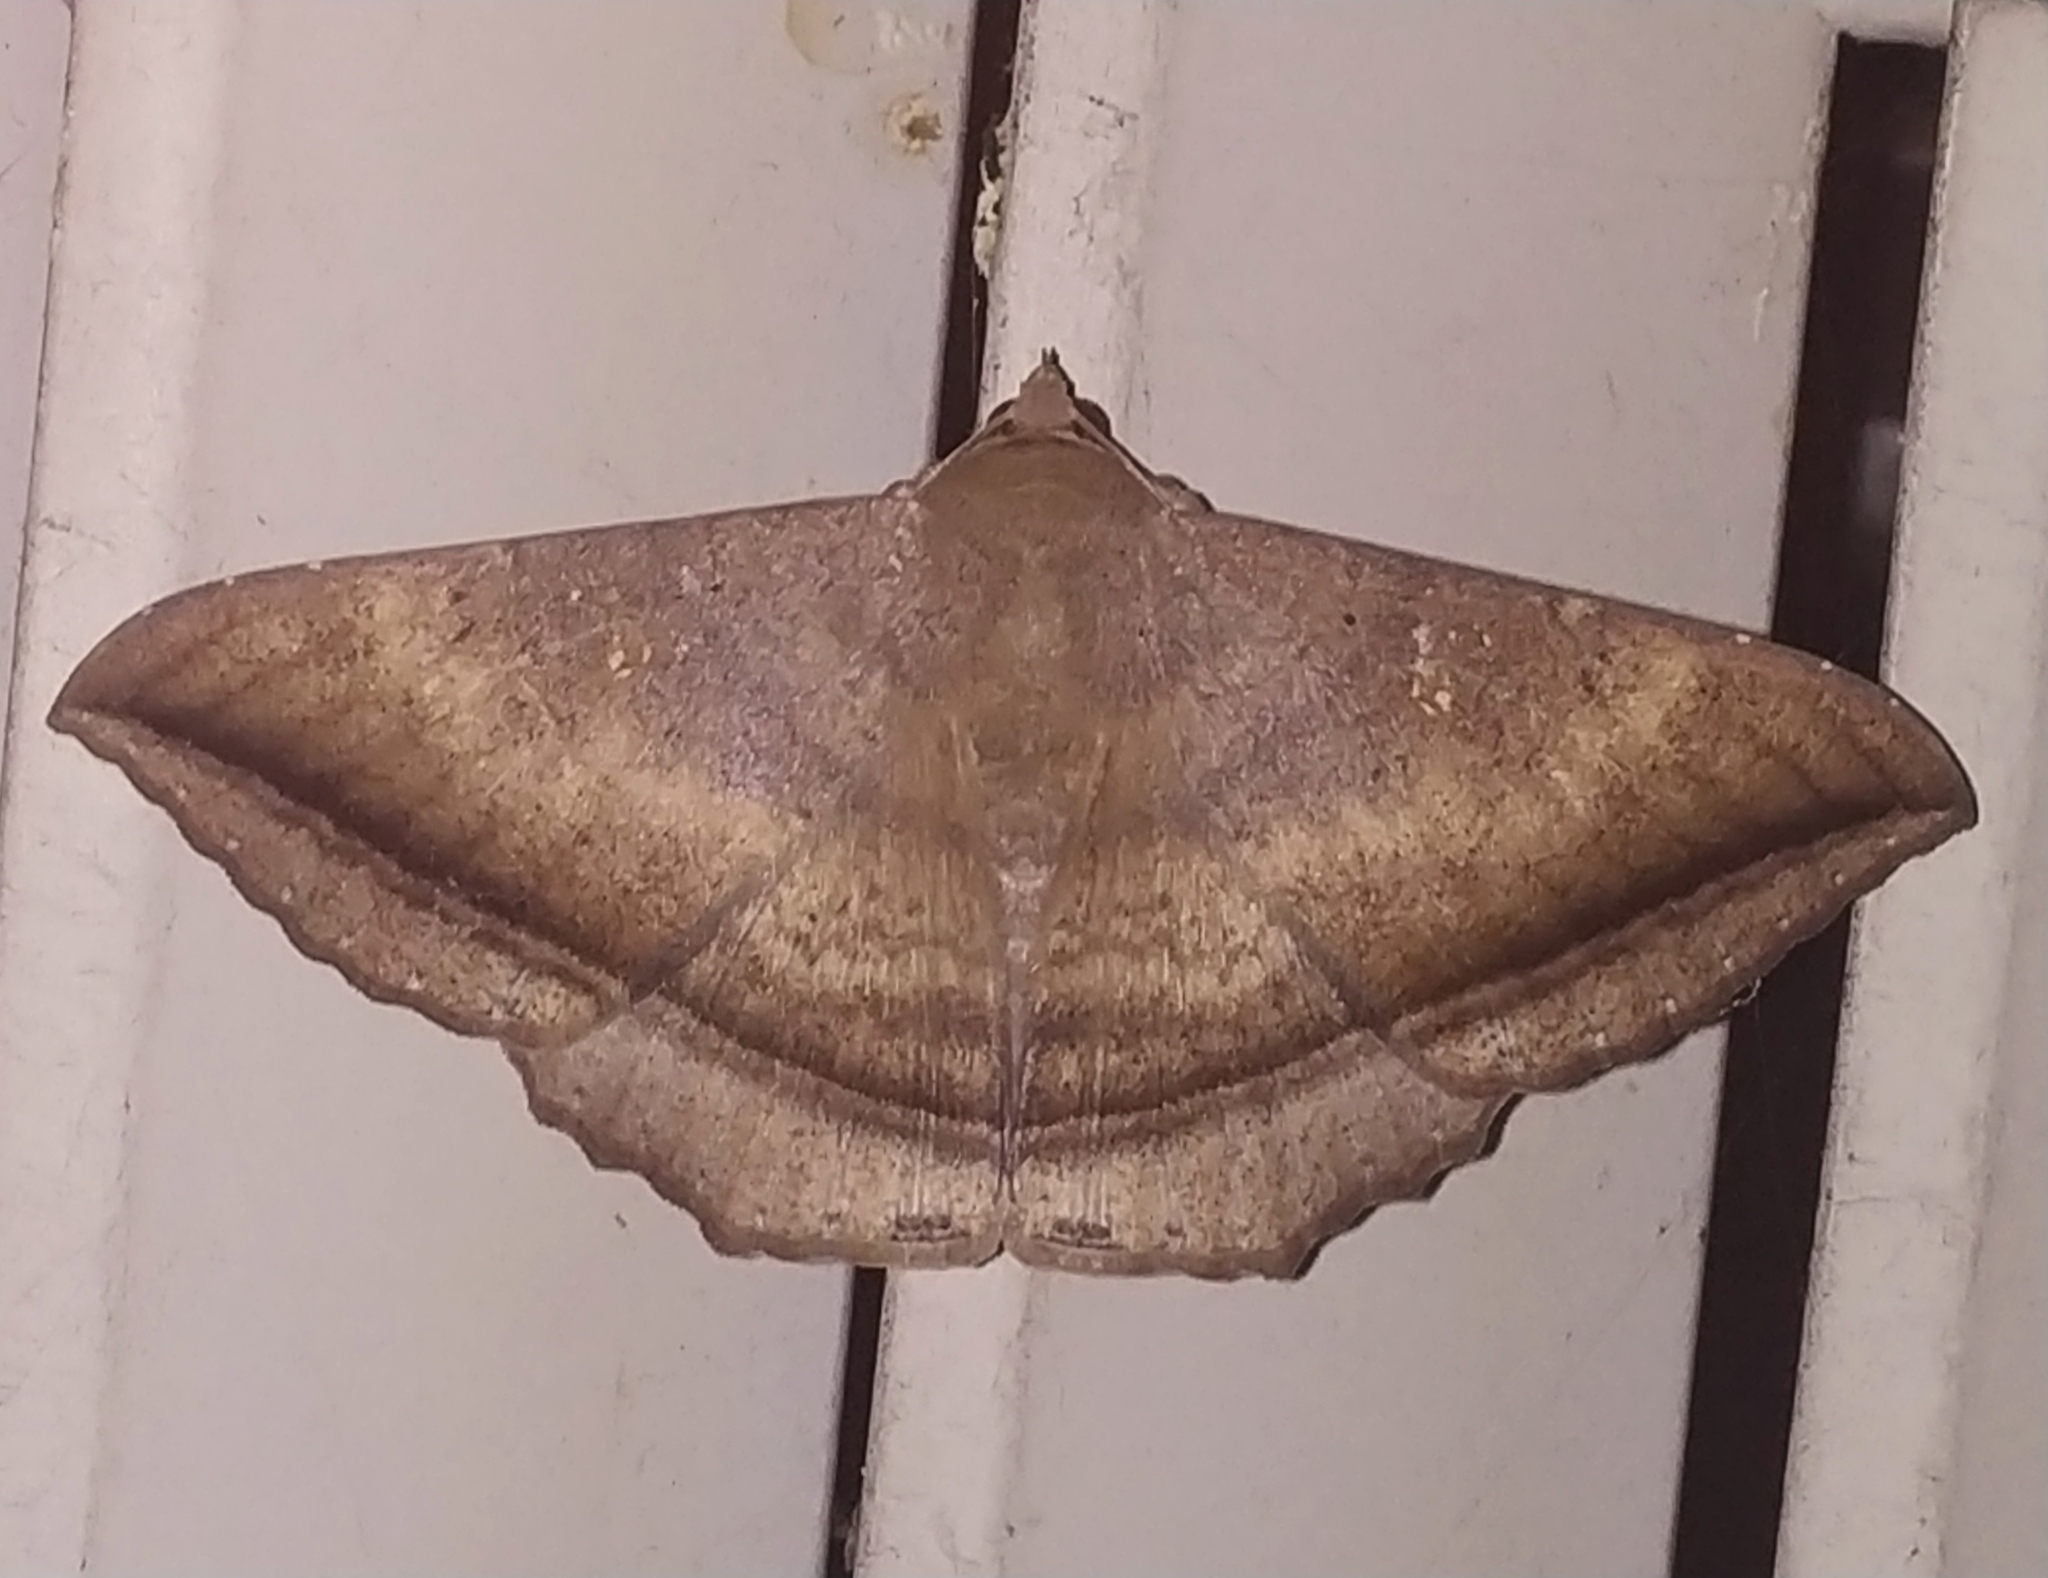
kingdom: Animalia
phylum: Arthropoda
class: Insecta
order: Lepidoptera
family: Erebidae
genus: Hulodes
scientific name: Hulodes caranea
